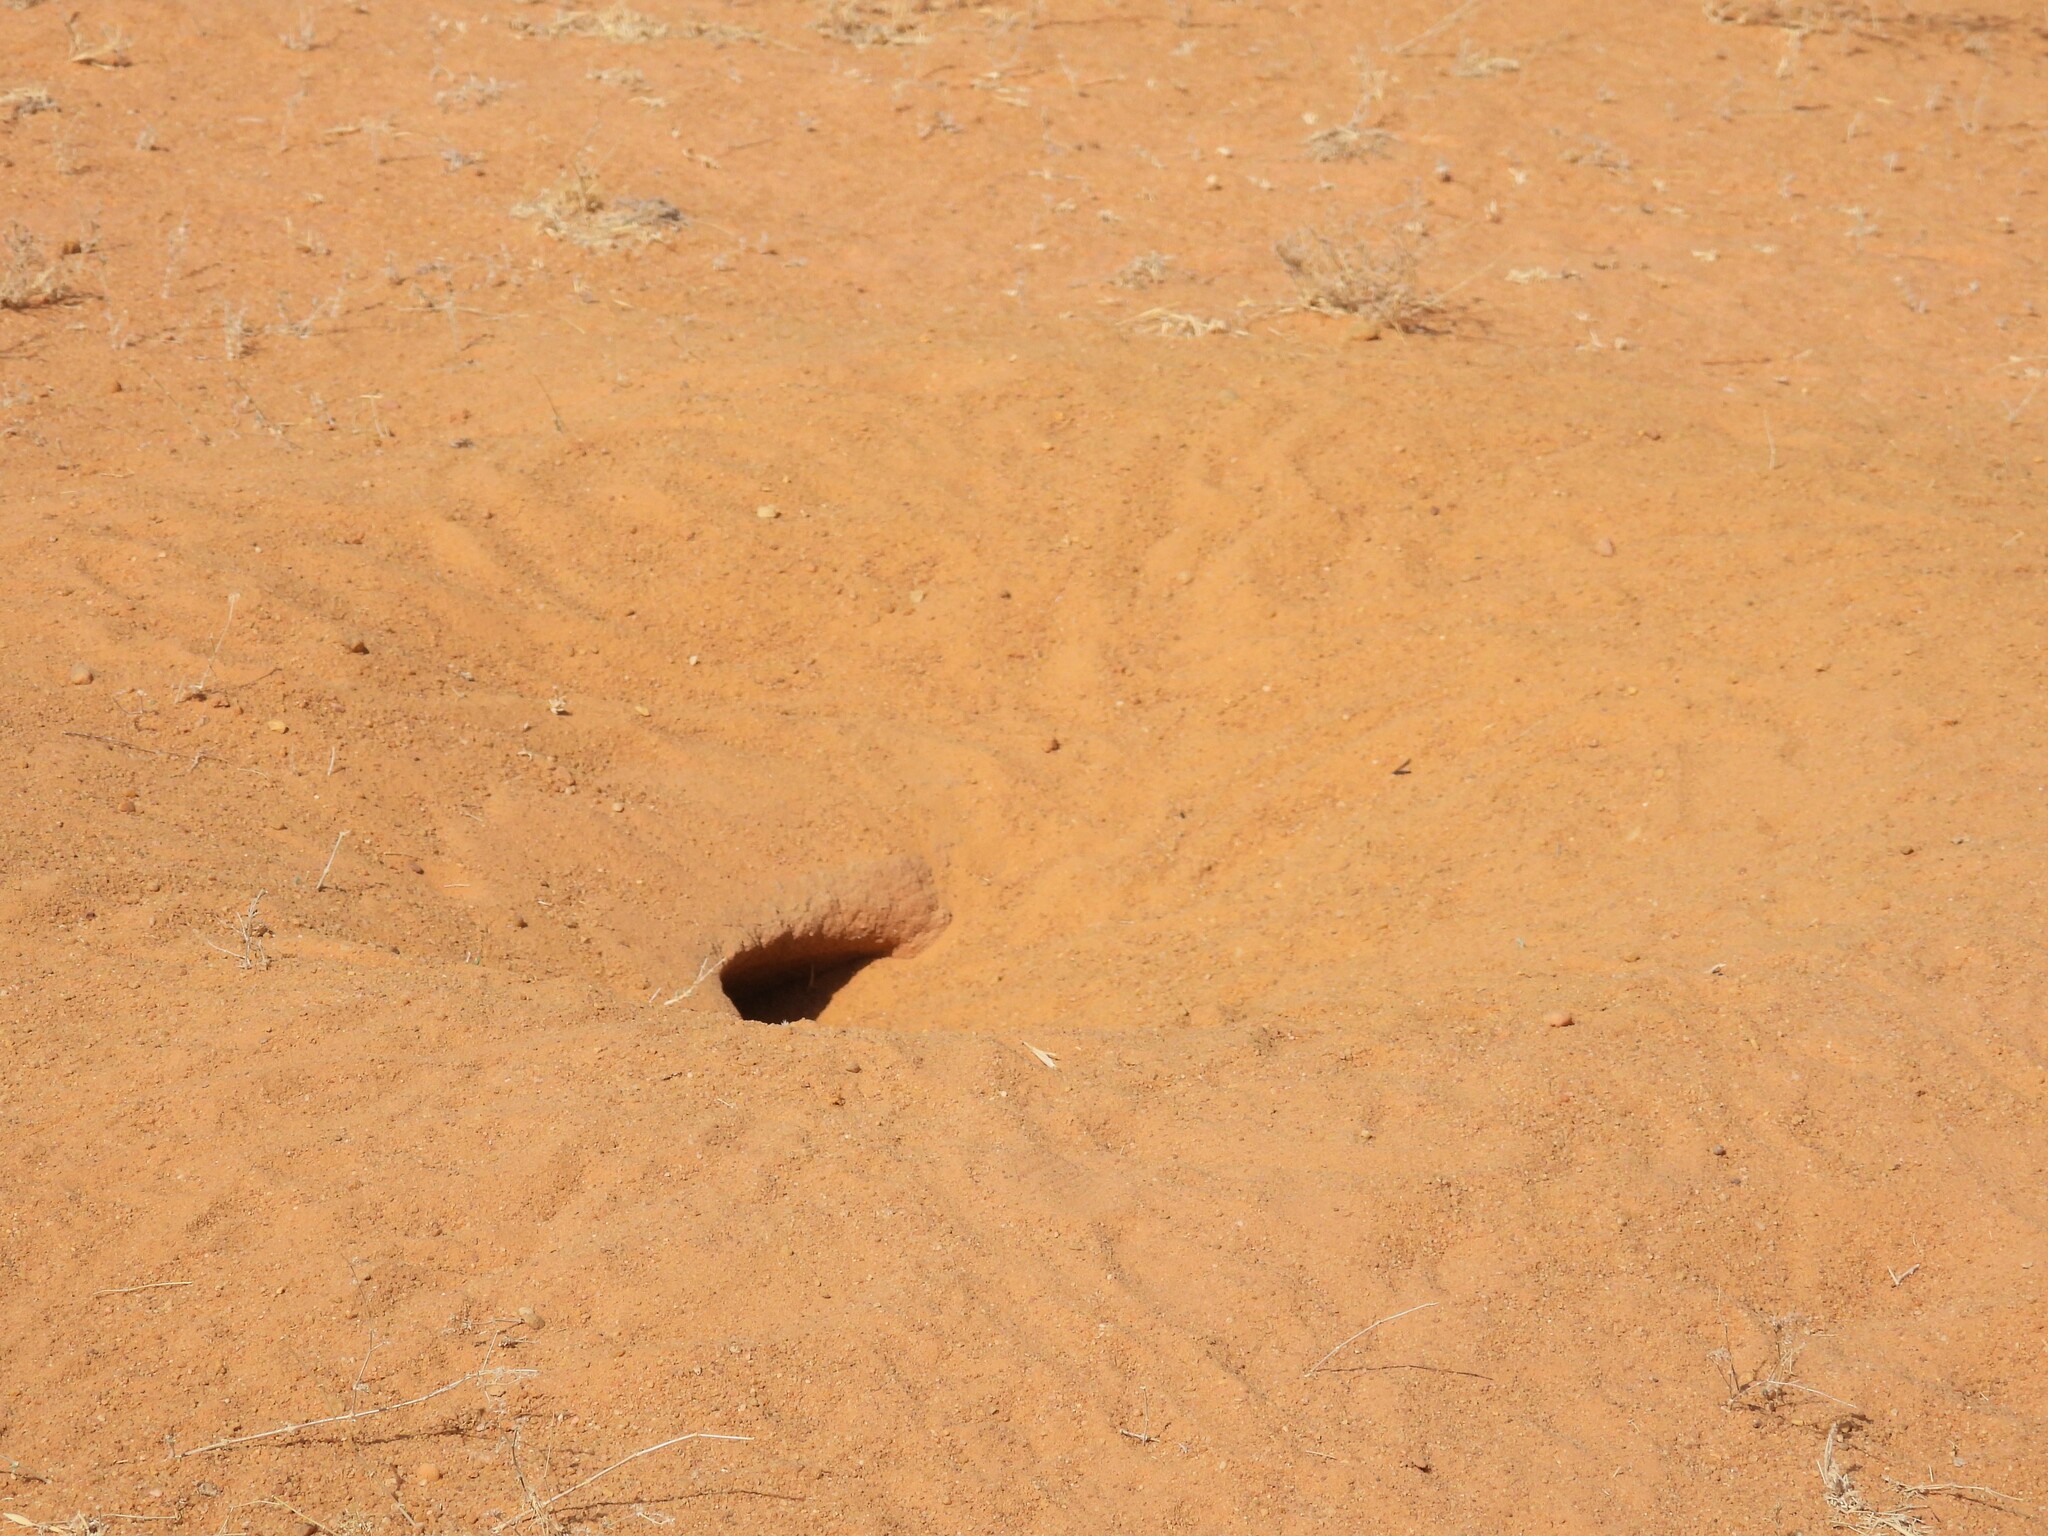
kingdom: Animalia
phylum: Chordata
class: Squamata
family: Agamidae
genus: Uromastyx
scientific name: Uromastyx aegyptia
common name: Egyptian mastigure
